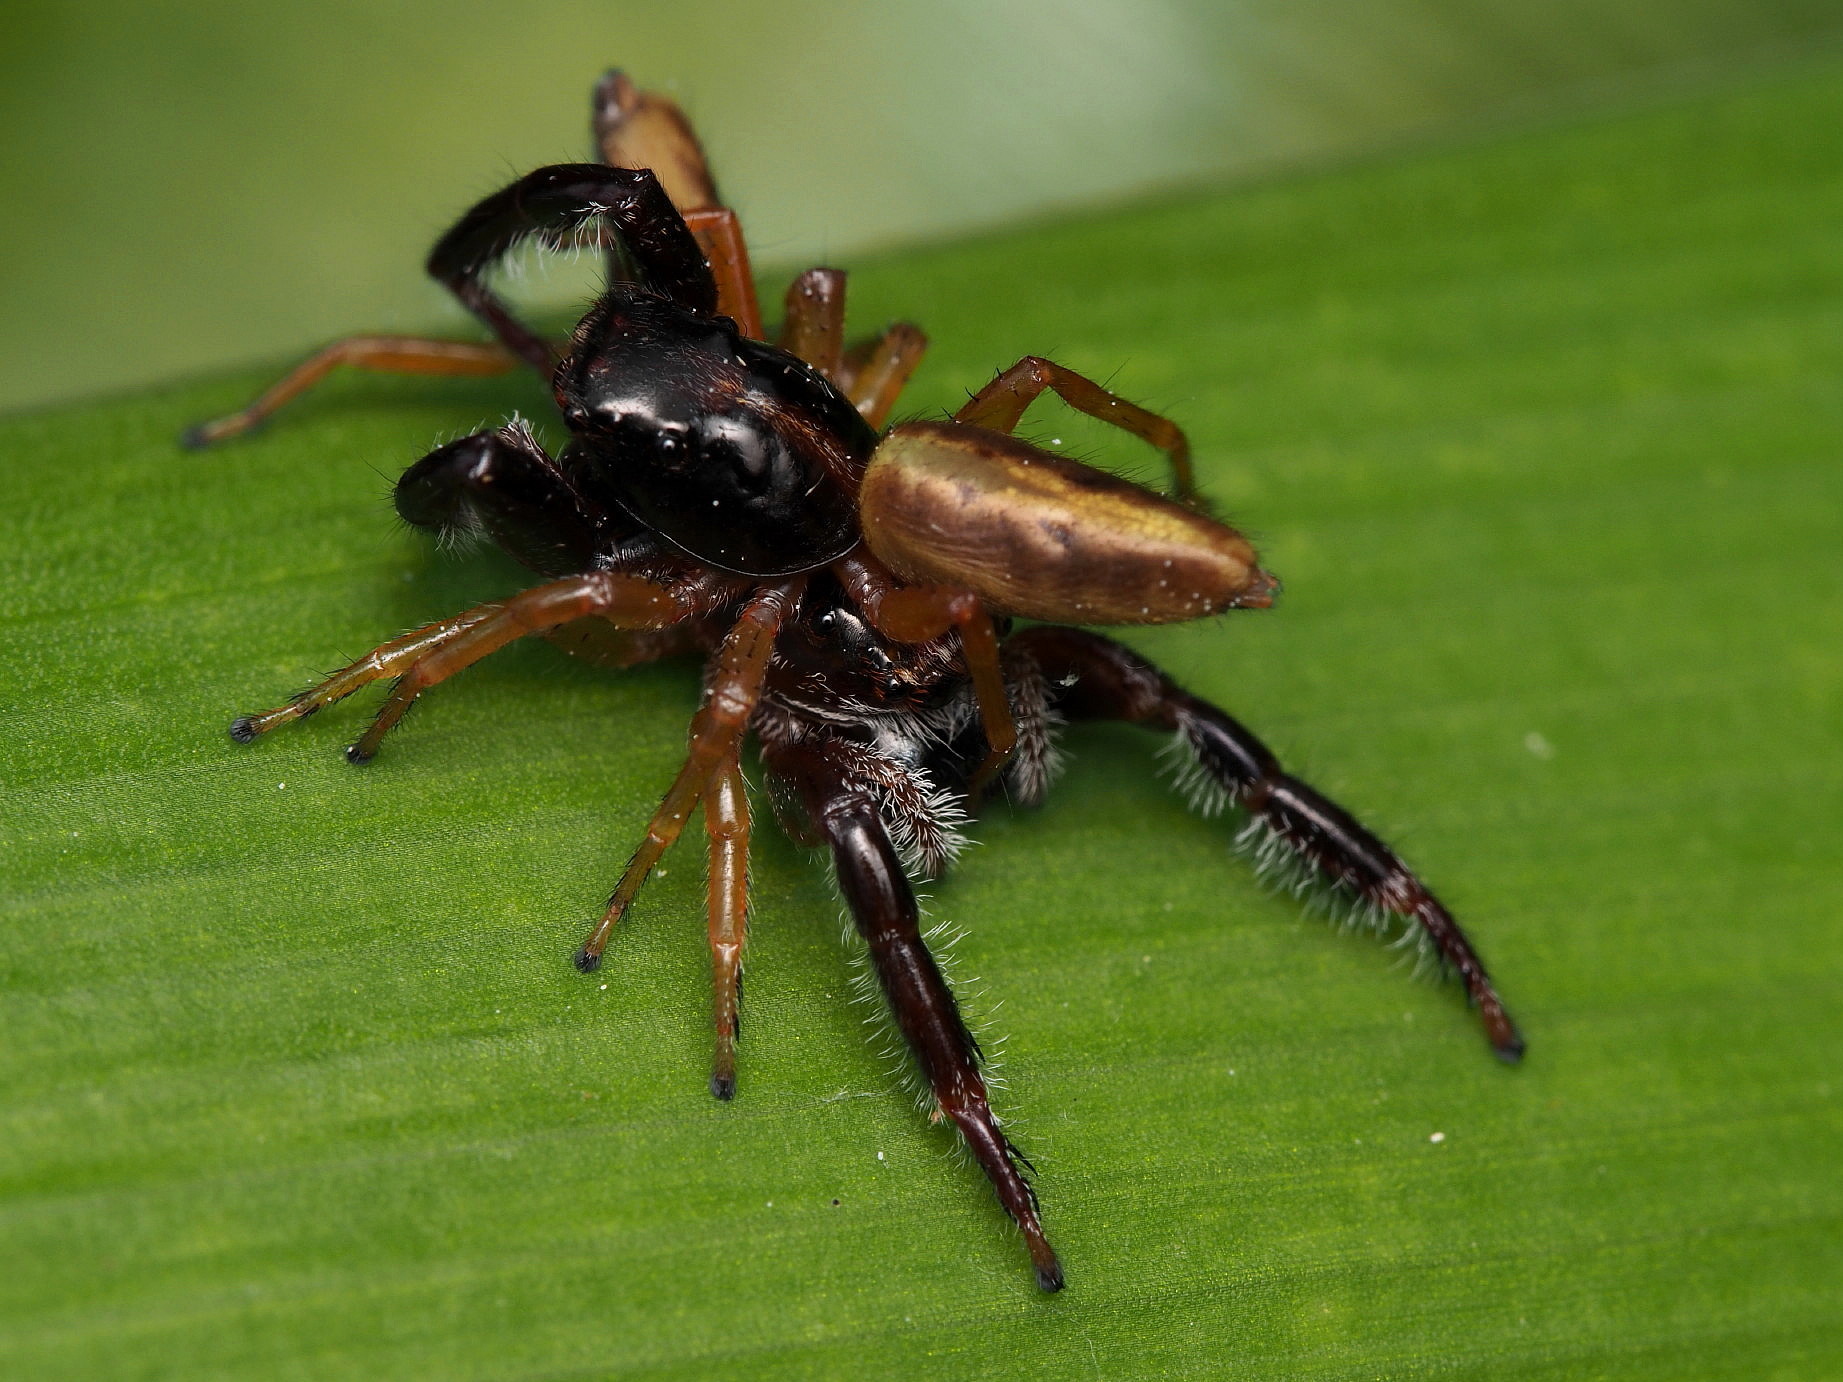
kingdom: Animalia
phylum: Arthropoda
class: Arachnida
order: Araneae
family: Salticidae
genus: Trite
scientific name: Trite planiceps
